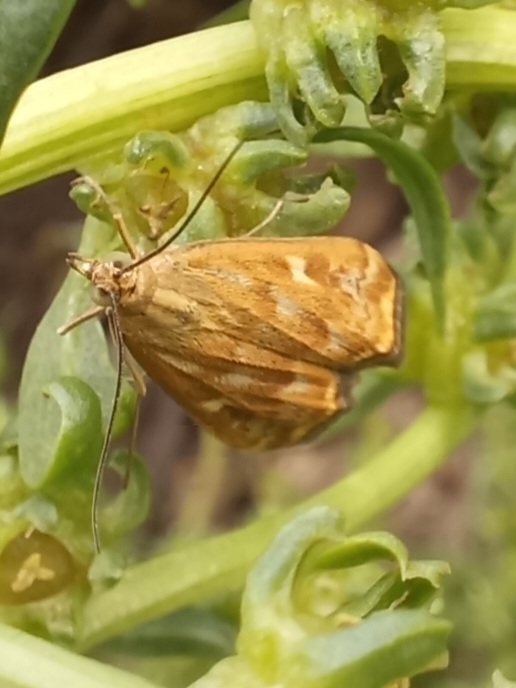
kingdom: Animalia
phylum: Arthropoda
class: Insecta
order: Lepidoptera
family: Crambidae
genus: Loxostege
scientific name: Loxostege sticticalis
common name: Crambid moth
